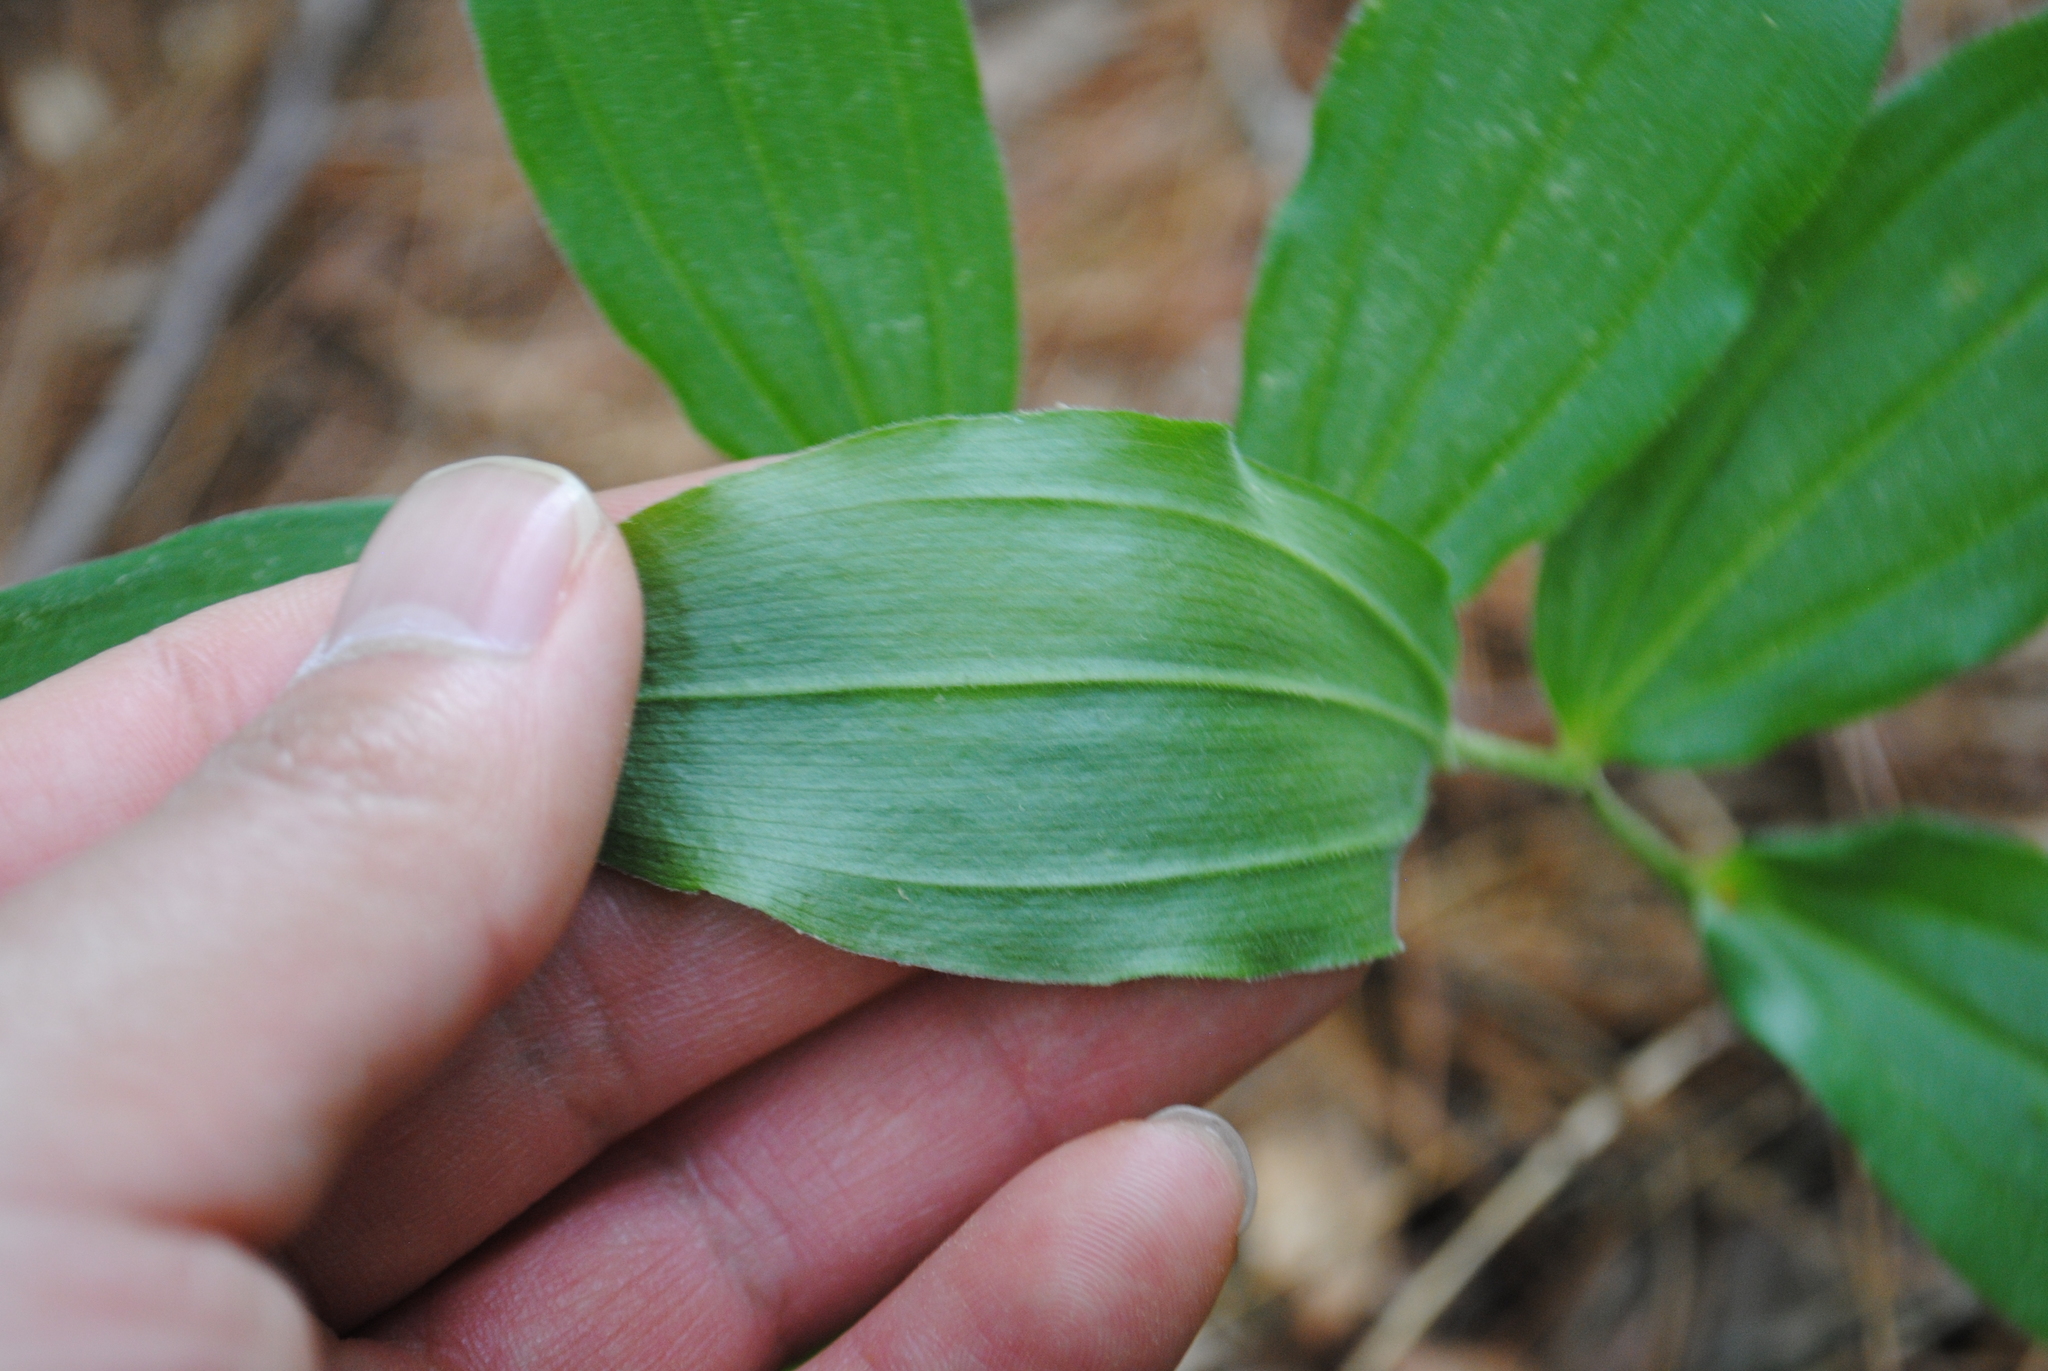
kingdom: Plantae
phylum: Tracheophyta
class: Liliopsida
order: Asparagales
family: Asparagaceae
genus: Maianthemum
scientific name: Maianthemum racemosum
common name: False spikenard
